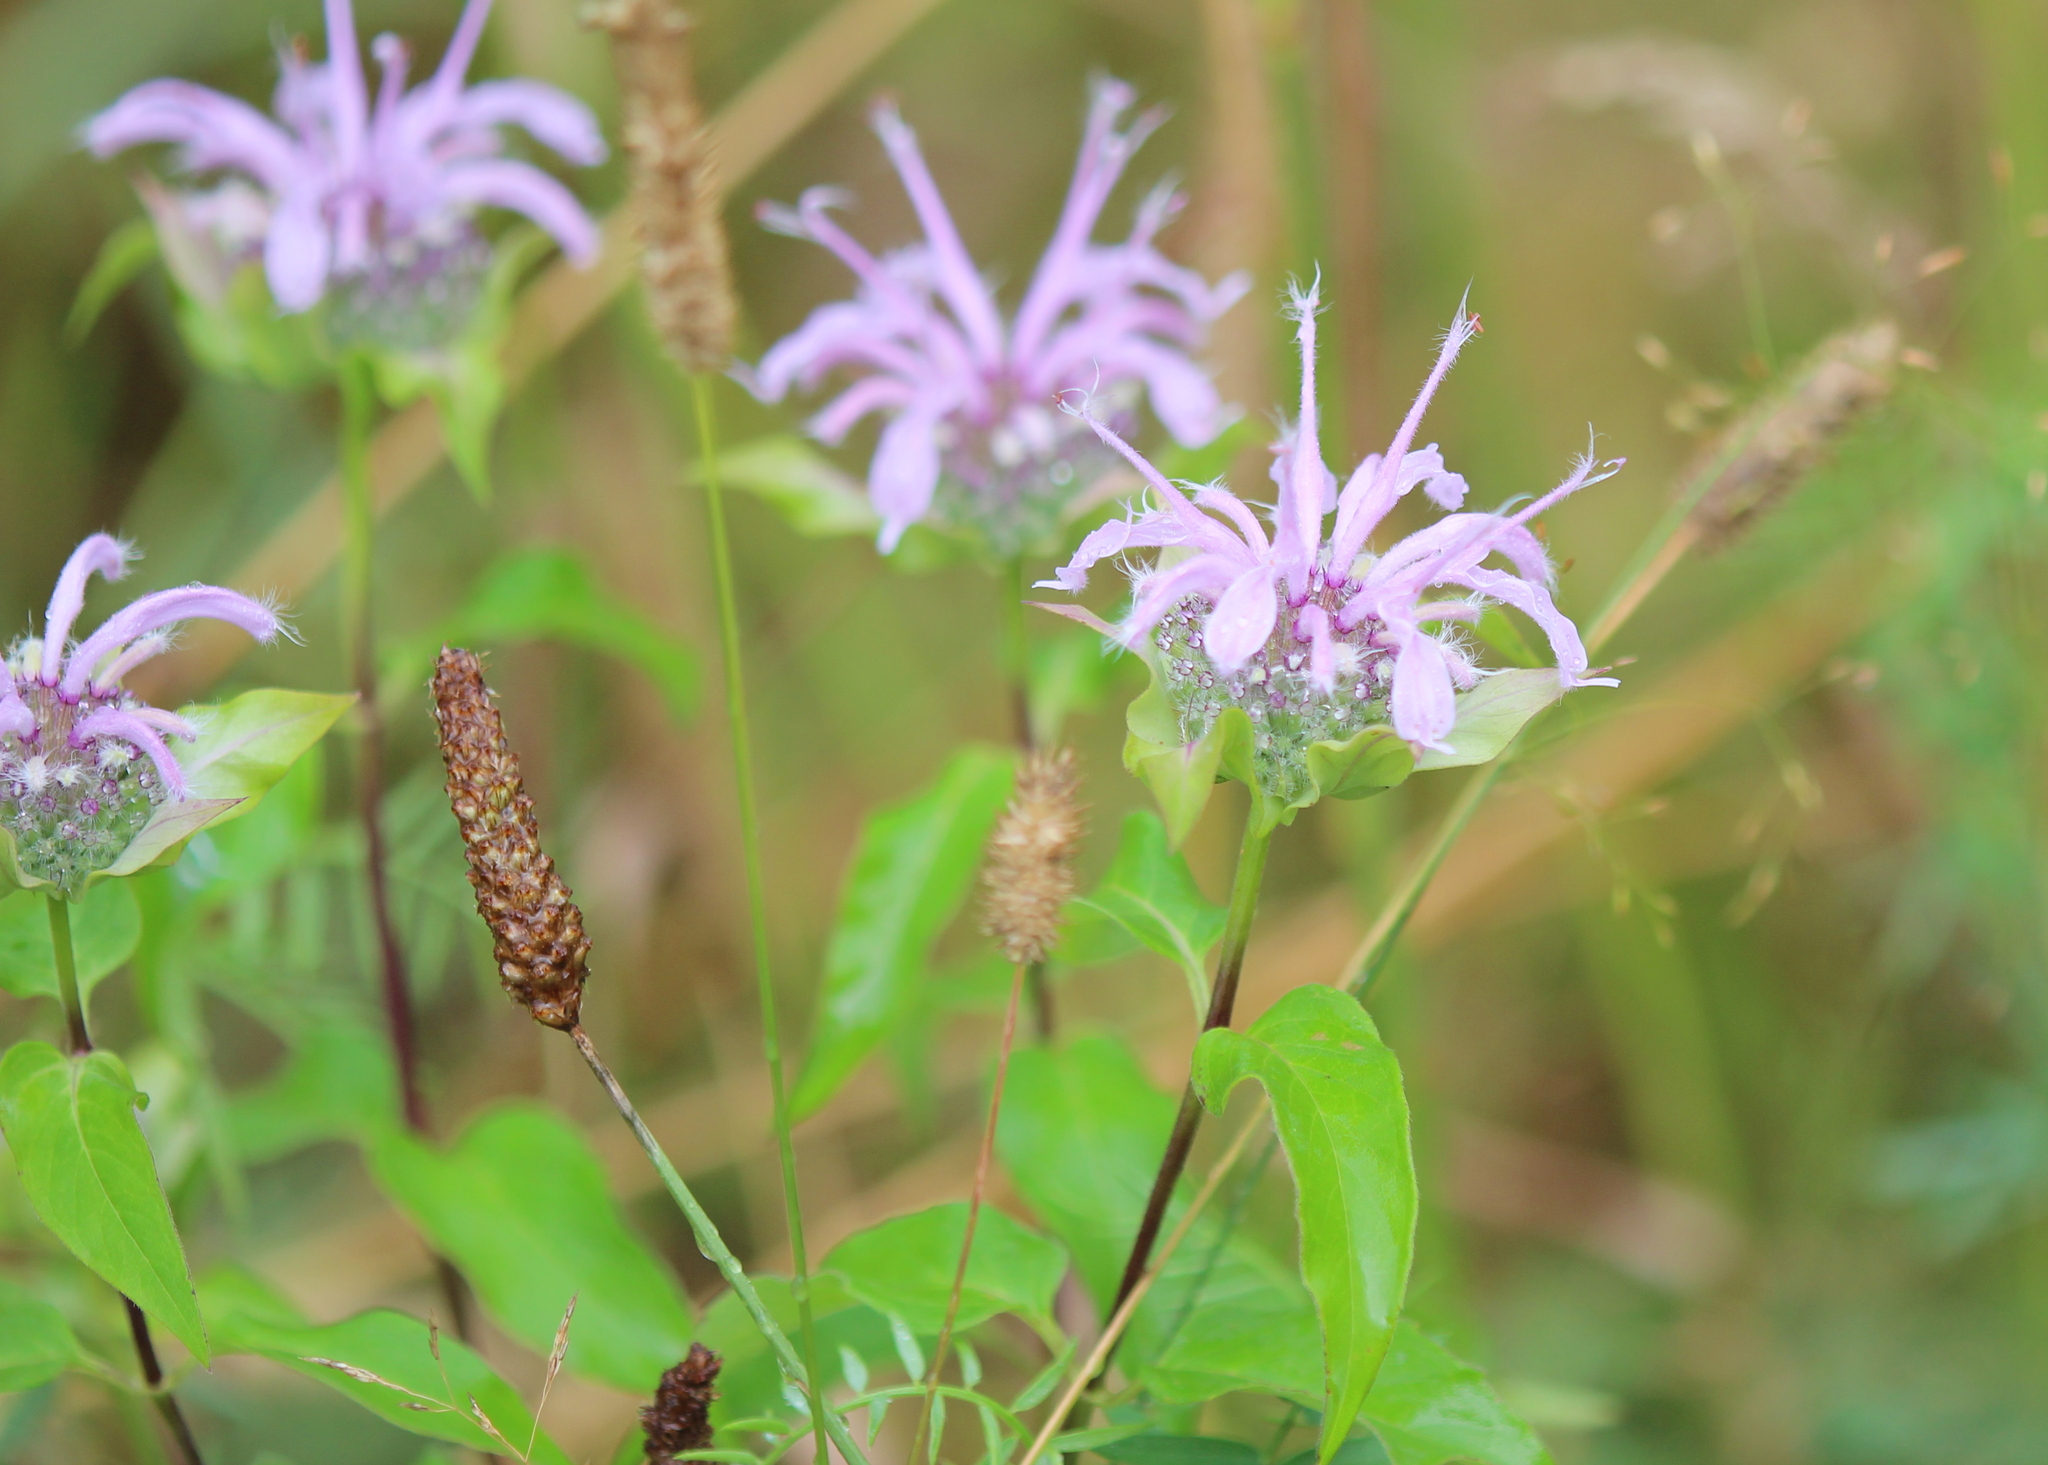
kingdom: Plantae
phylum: Tracheophyta
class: Magnoliopsida
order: Lamiales
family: Lamiaceae
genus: Monarda
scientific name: Monarda fistulosa
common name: Purple beebalm
